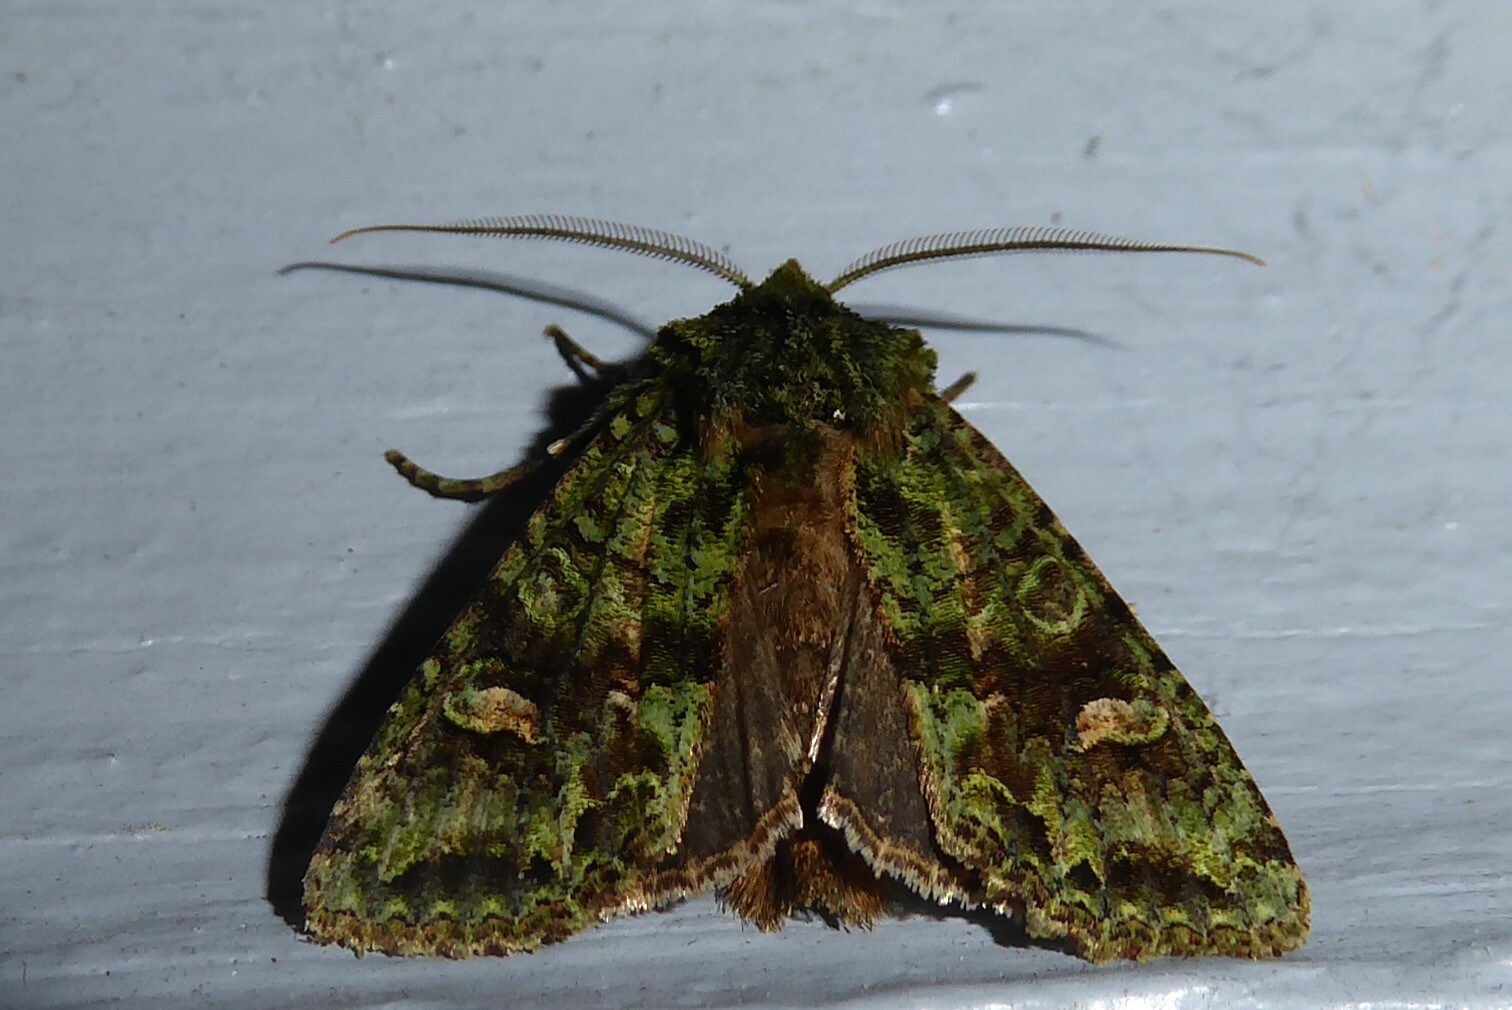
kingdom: Animalia
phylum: Arthropoda
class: Insecta
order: Lepidoptera
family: Noctuidae
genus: Ichneutica
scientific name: Ichneutica
